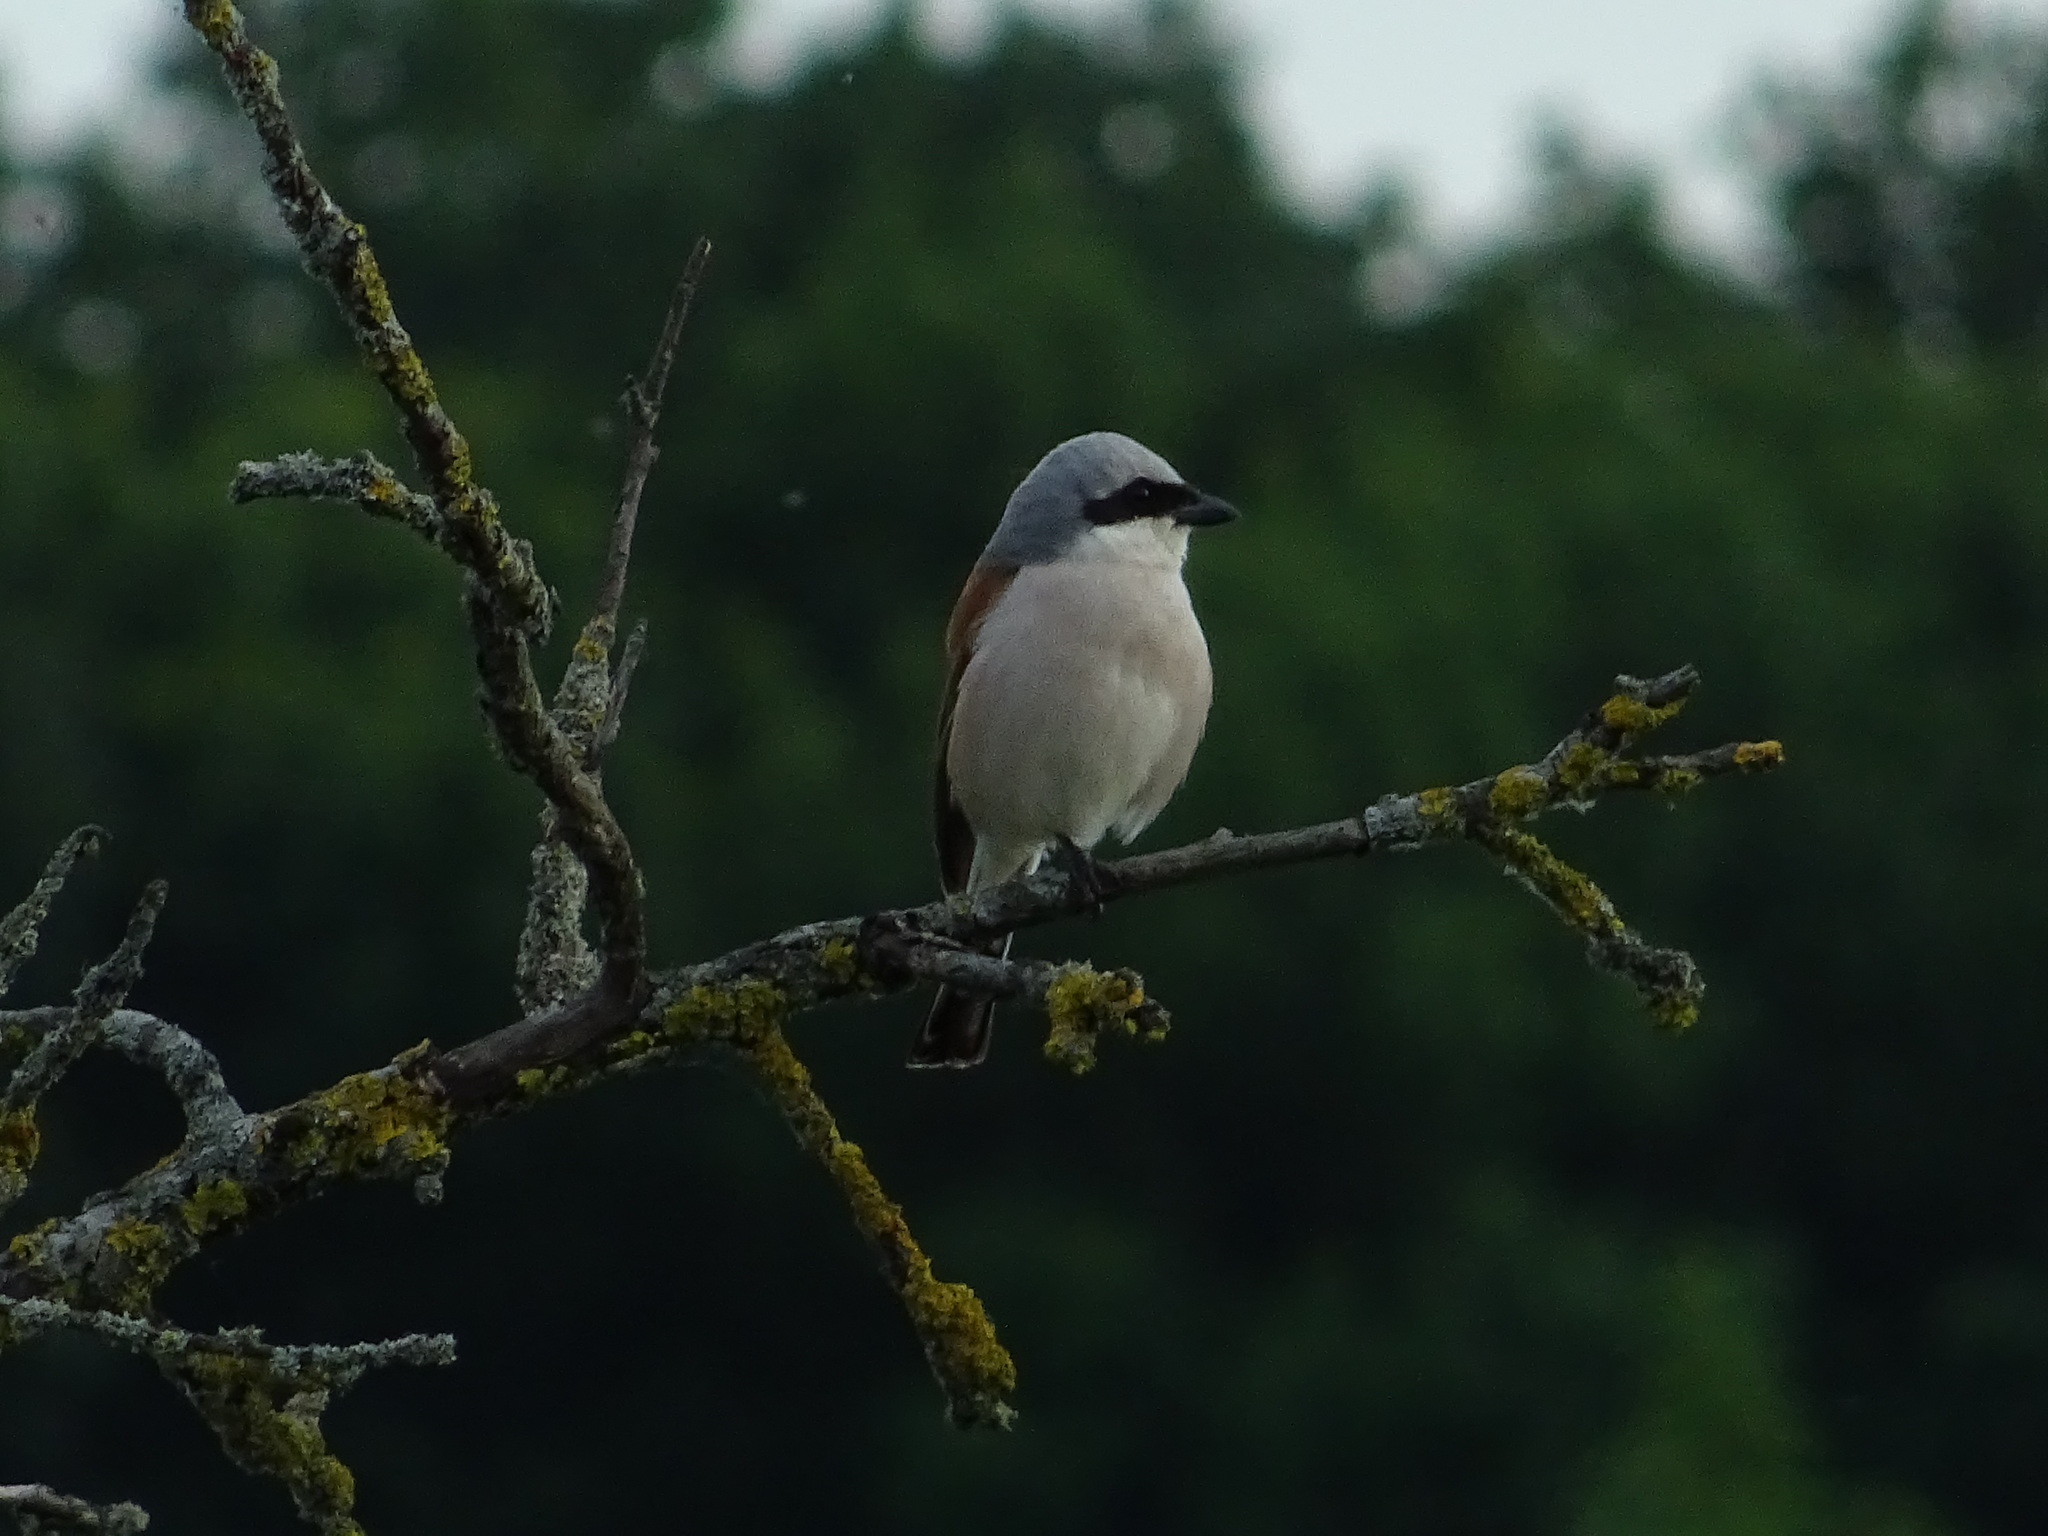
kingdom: Animalia
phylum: Chordata
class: Aves
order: Passeriformes
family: Laniidae
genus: Lanius
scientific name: Lanius collurio
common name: Red-backed shrike
